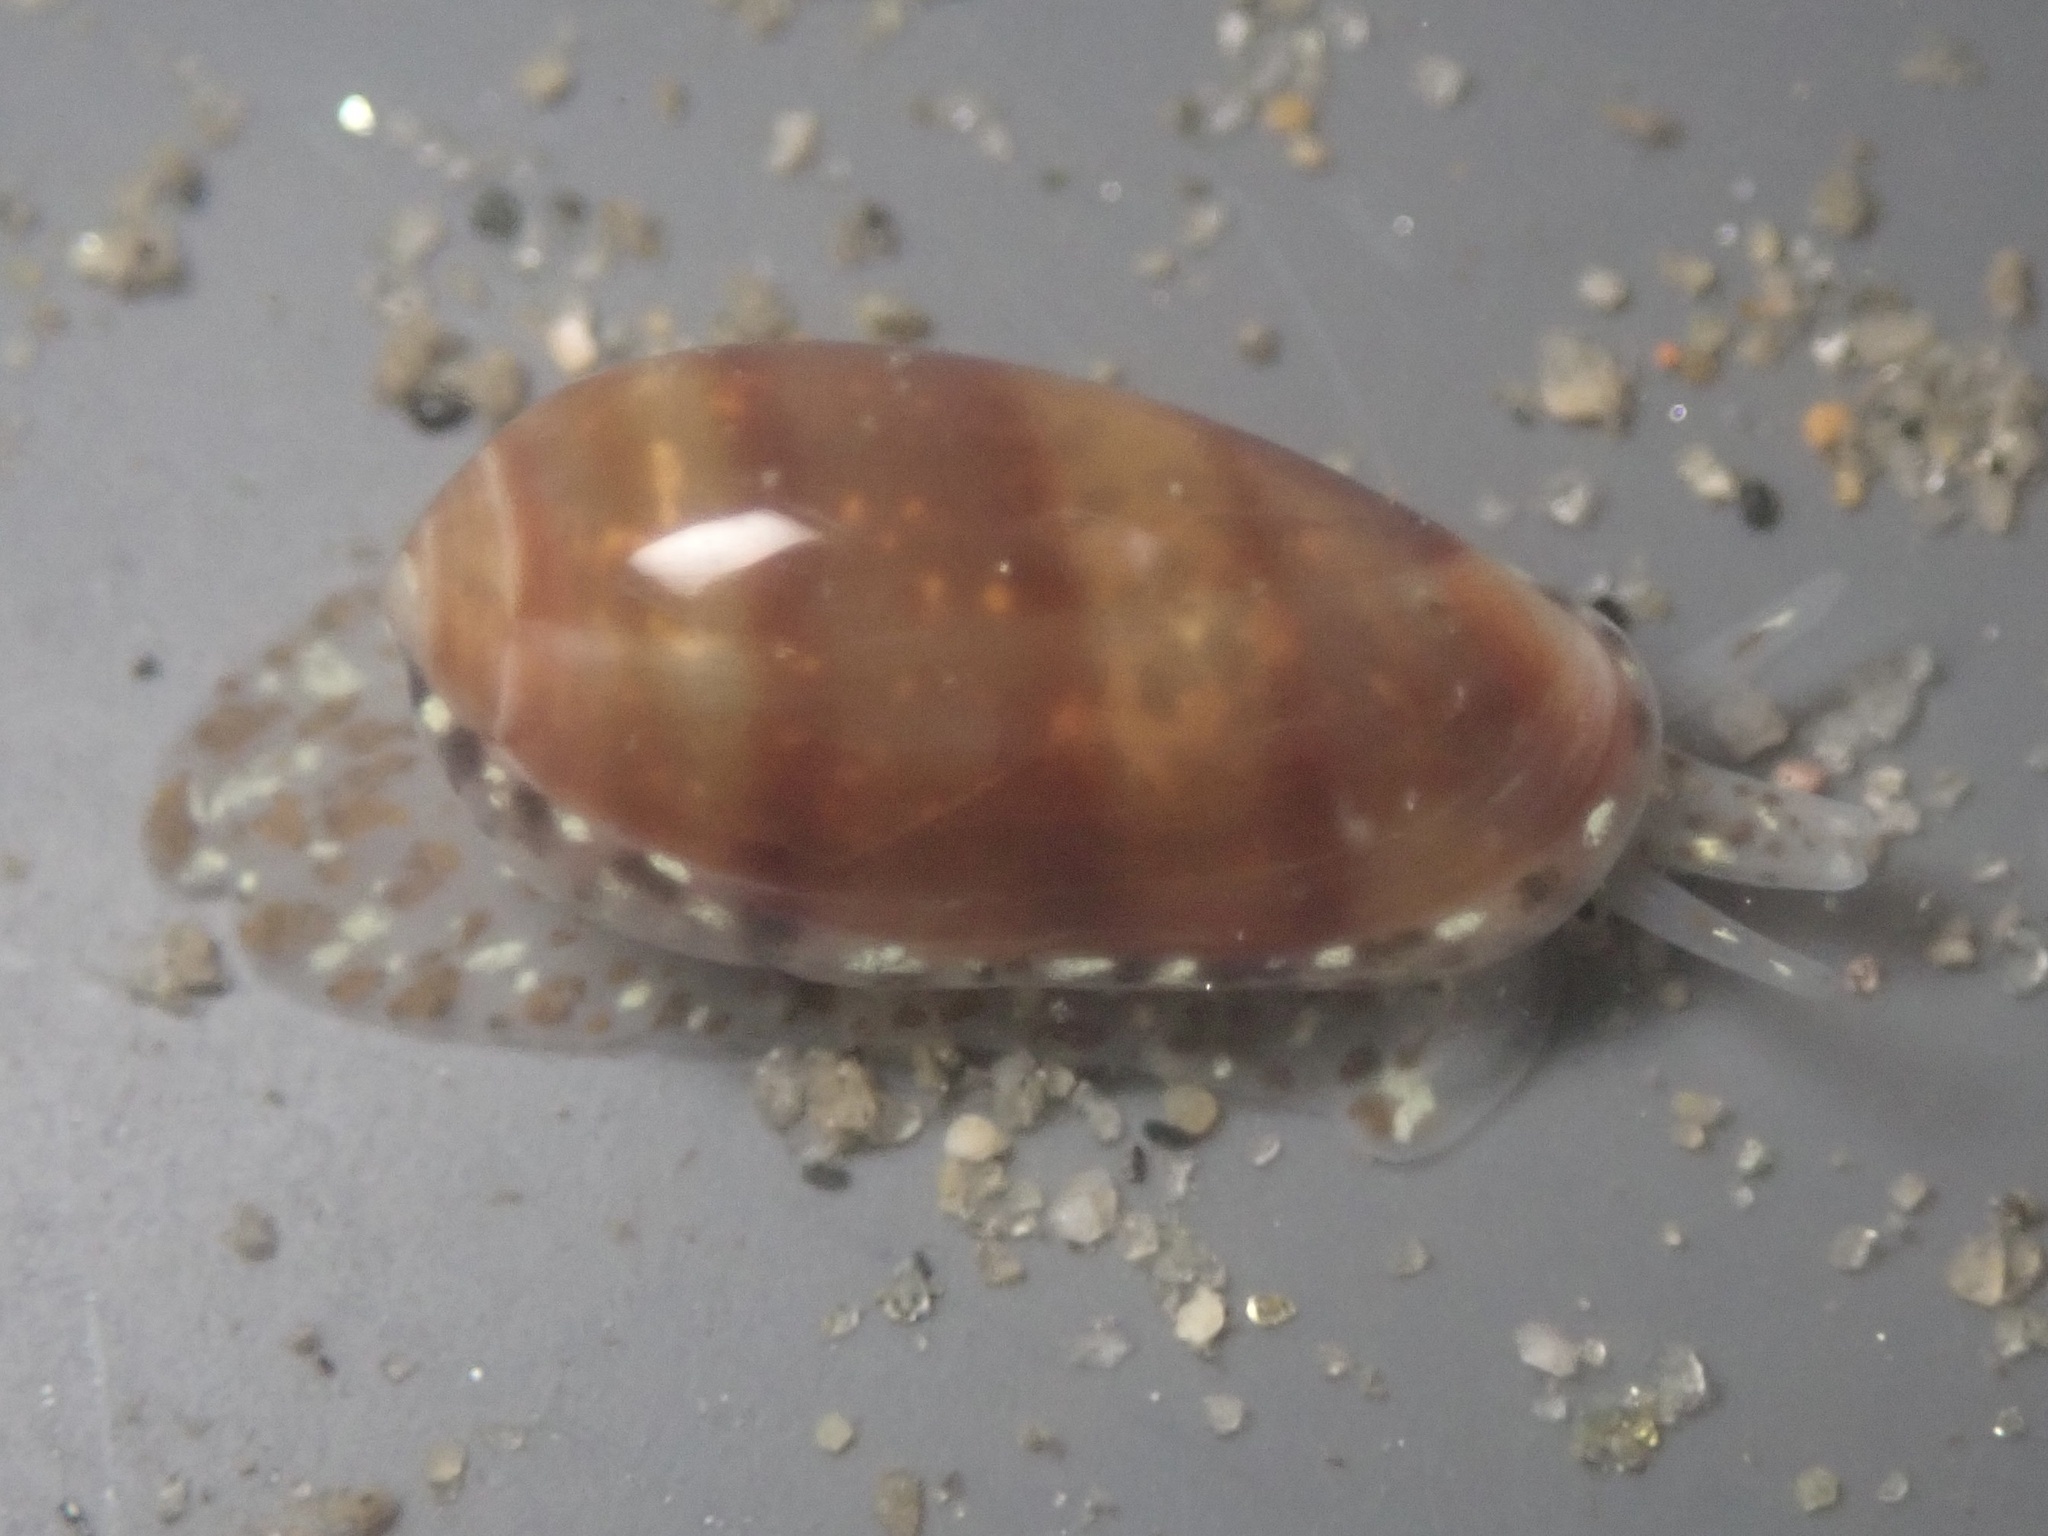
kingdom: Animalia
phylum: Mollusca
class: Gastropoda
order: Neogastropoda
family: Marginellidae
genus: Volvarina
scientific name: Volvarina taeniolata
